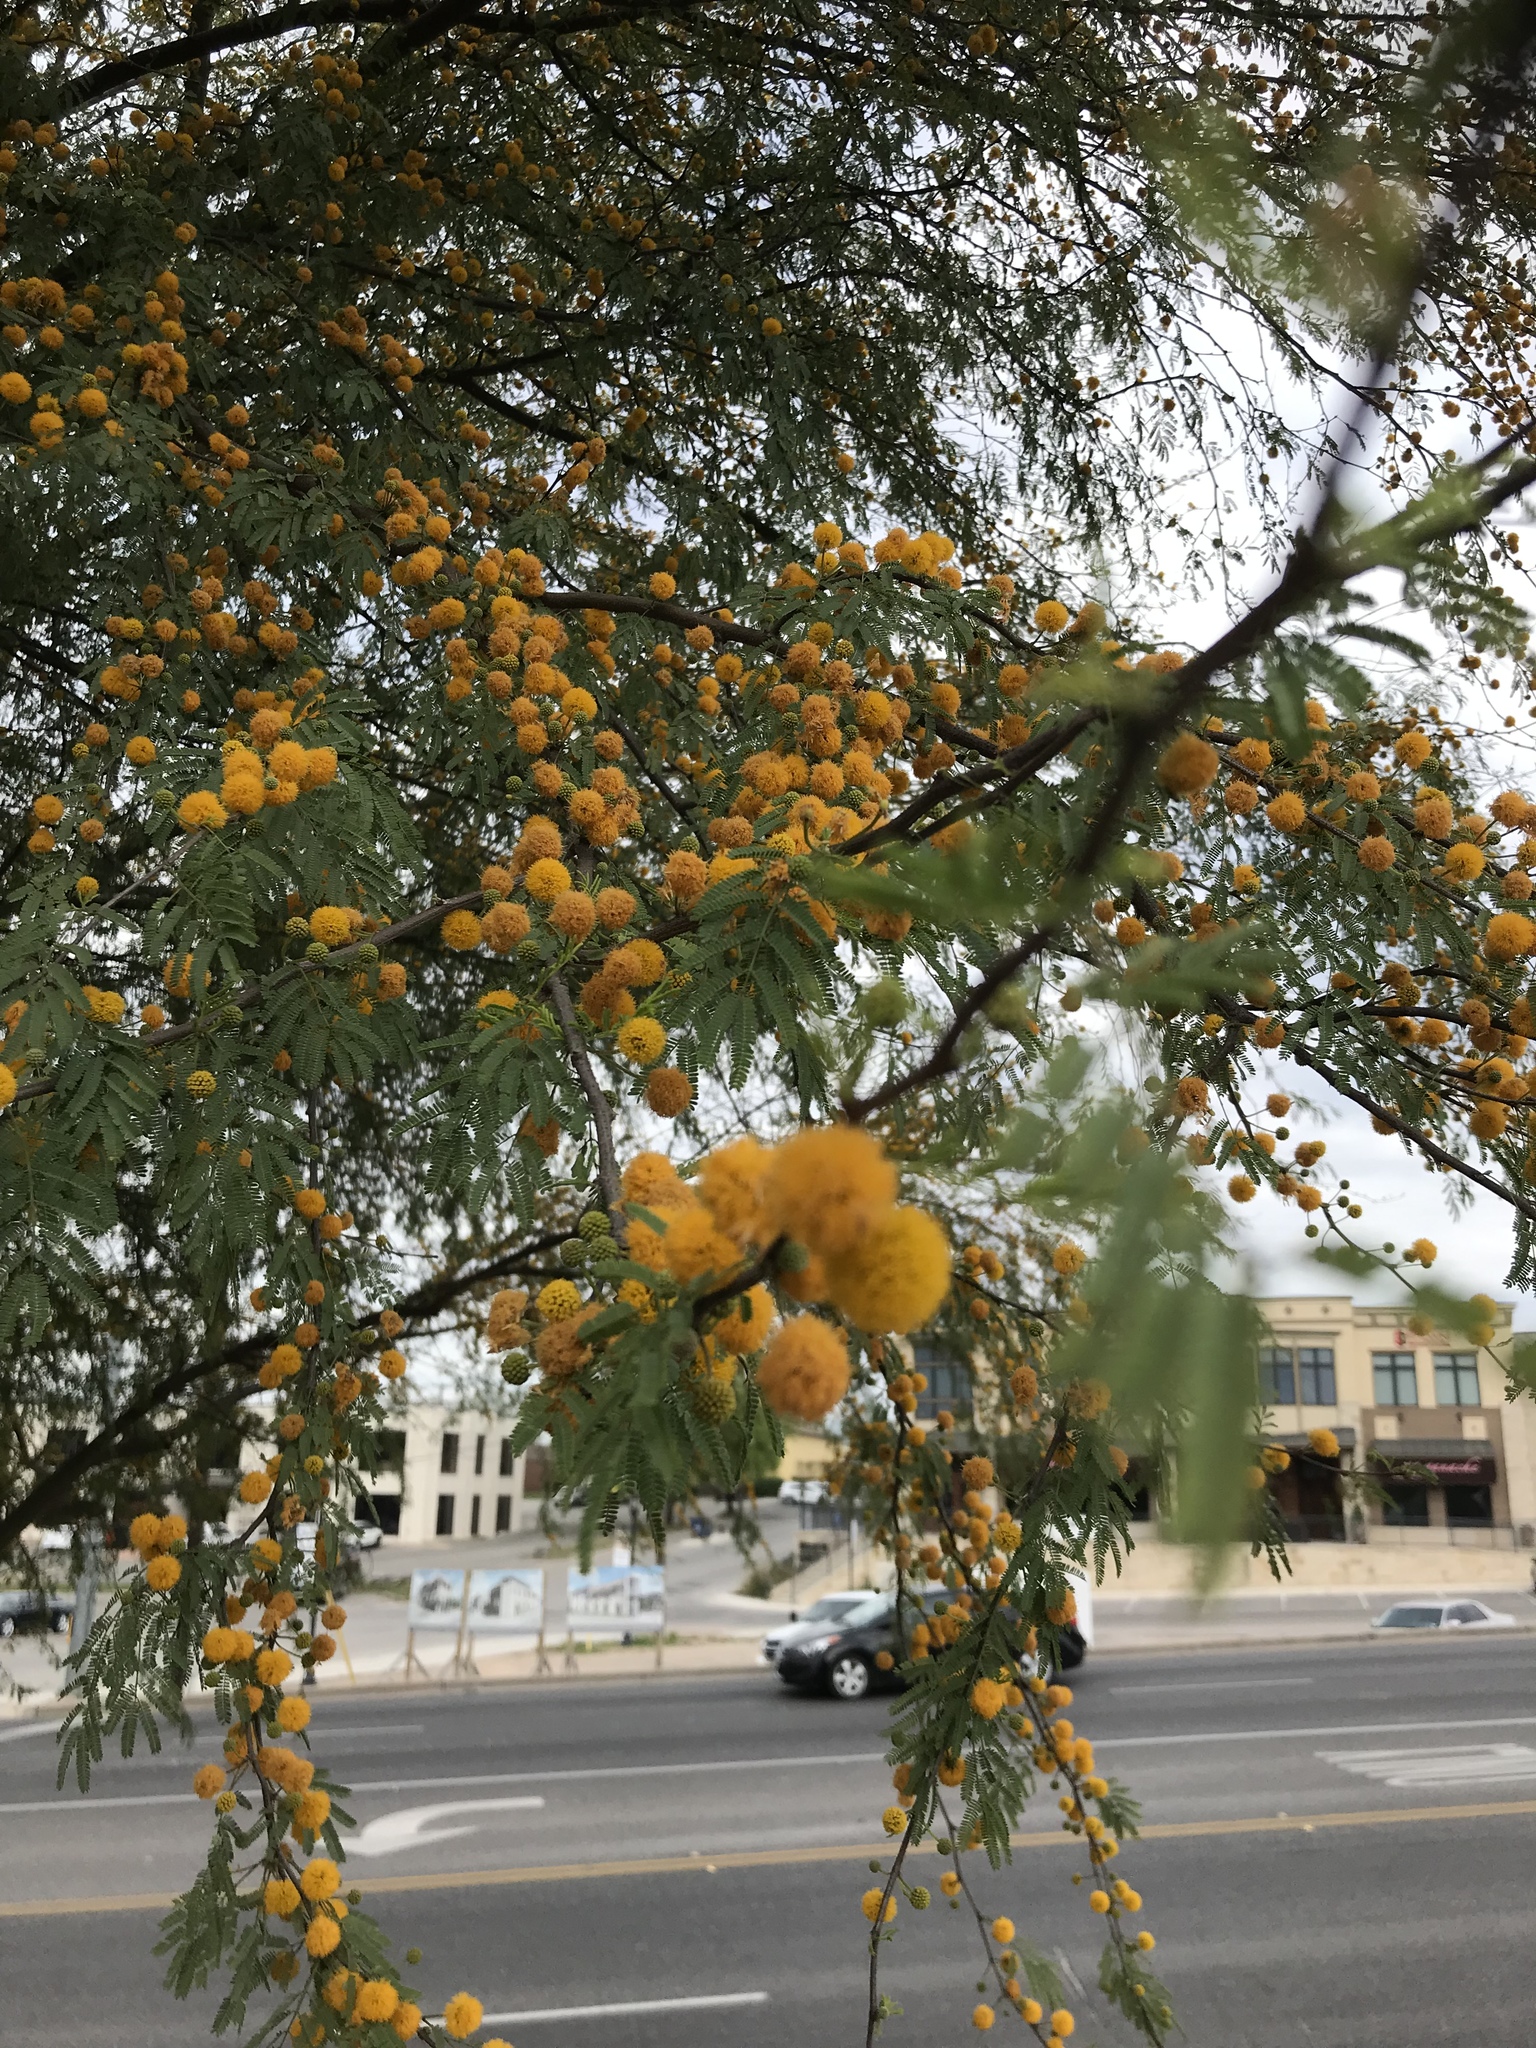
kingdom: Plantae
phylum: Tracheophyta
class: Magnoliopsida
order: Fabales
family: Fabaceae
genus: Vachellia
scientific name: Vachellia farnesiana
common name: Sweet acacia
